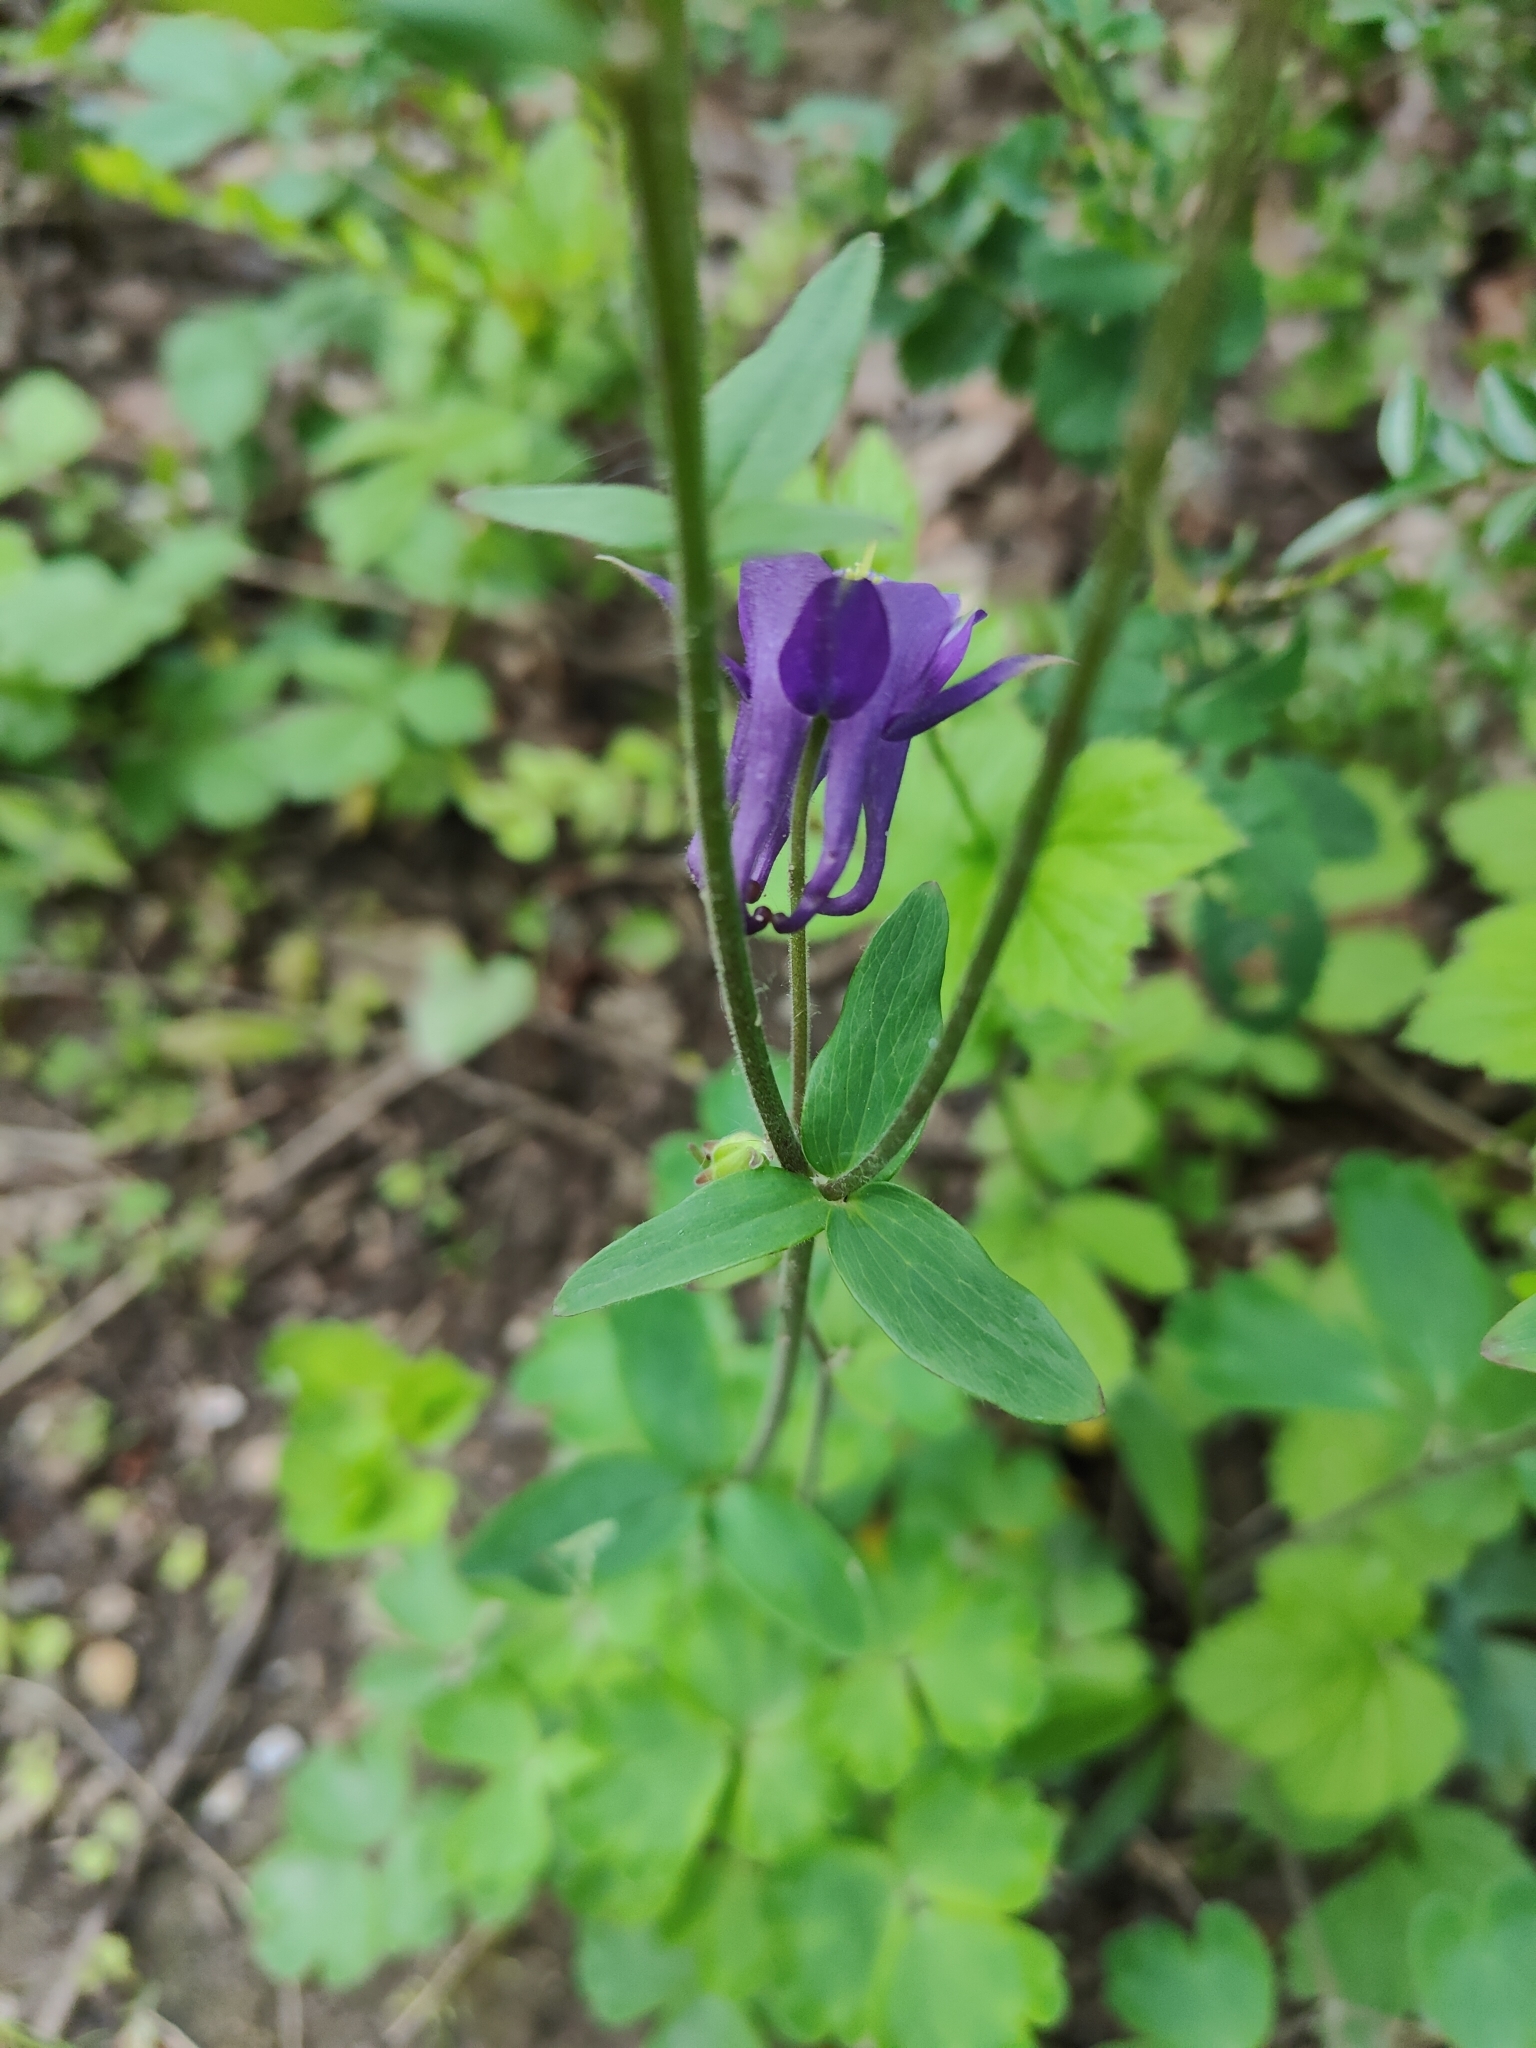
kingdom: Plantae
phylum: Tracheophyta
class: Magnoliopsida
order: Ranunculales
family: Ranunculaceae
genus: Aquilegia
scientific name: Aquilegia vulgaris
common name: Columbine
